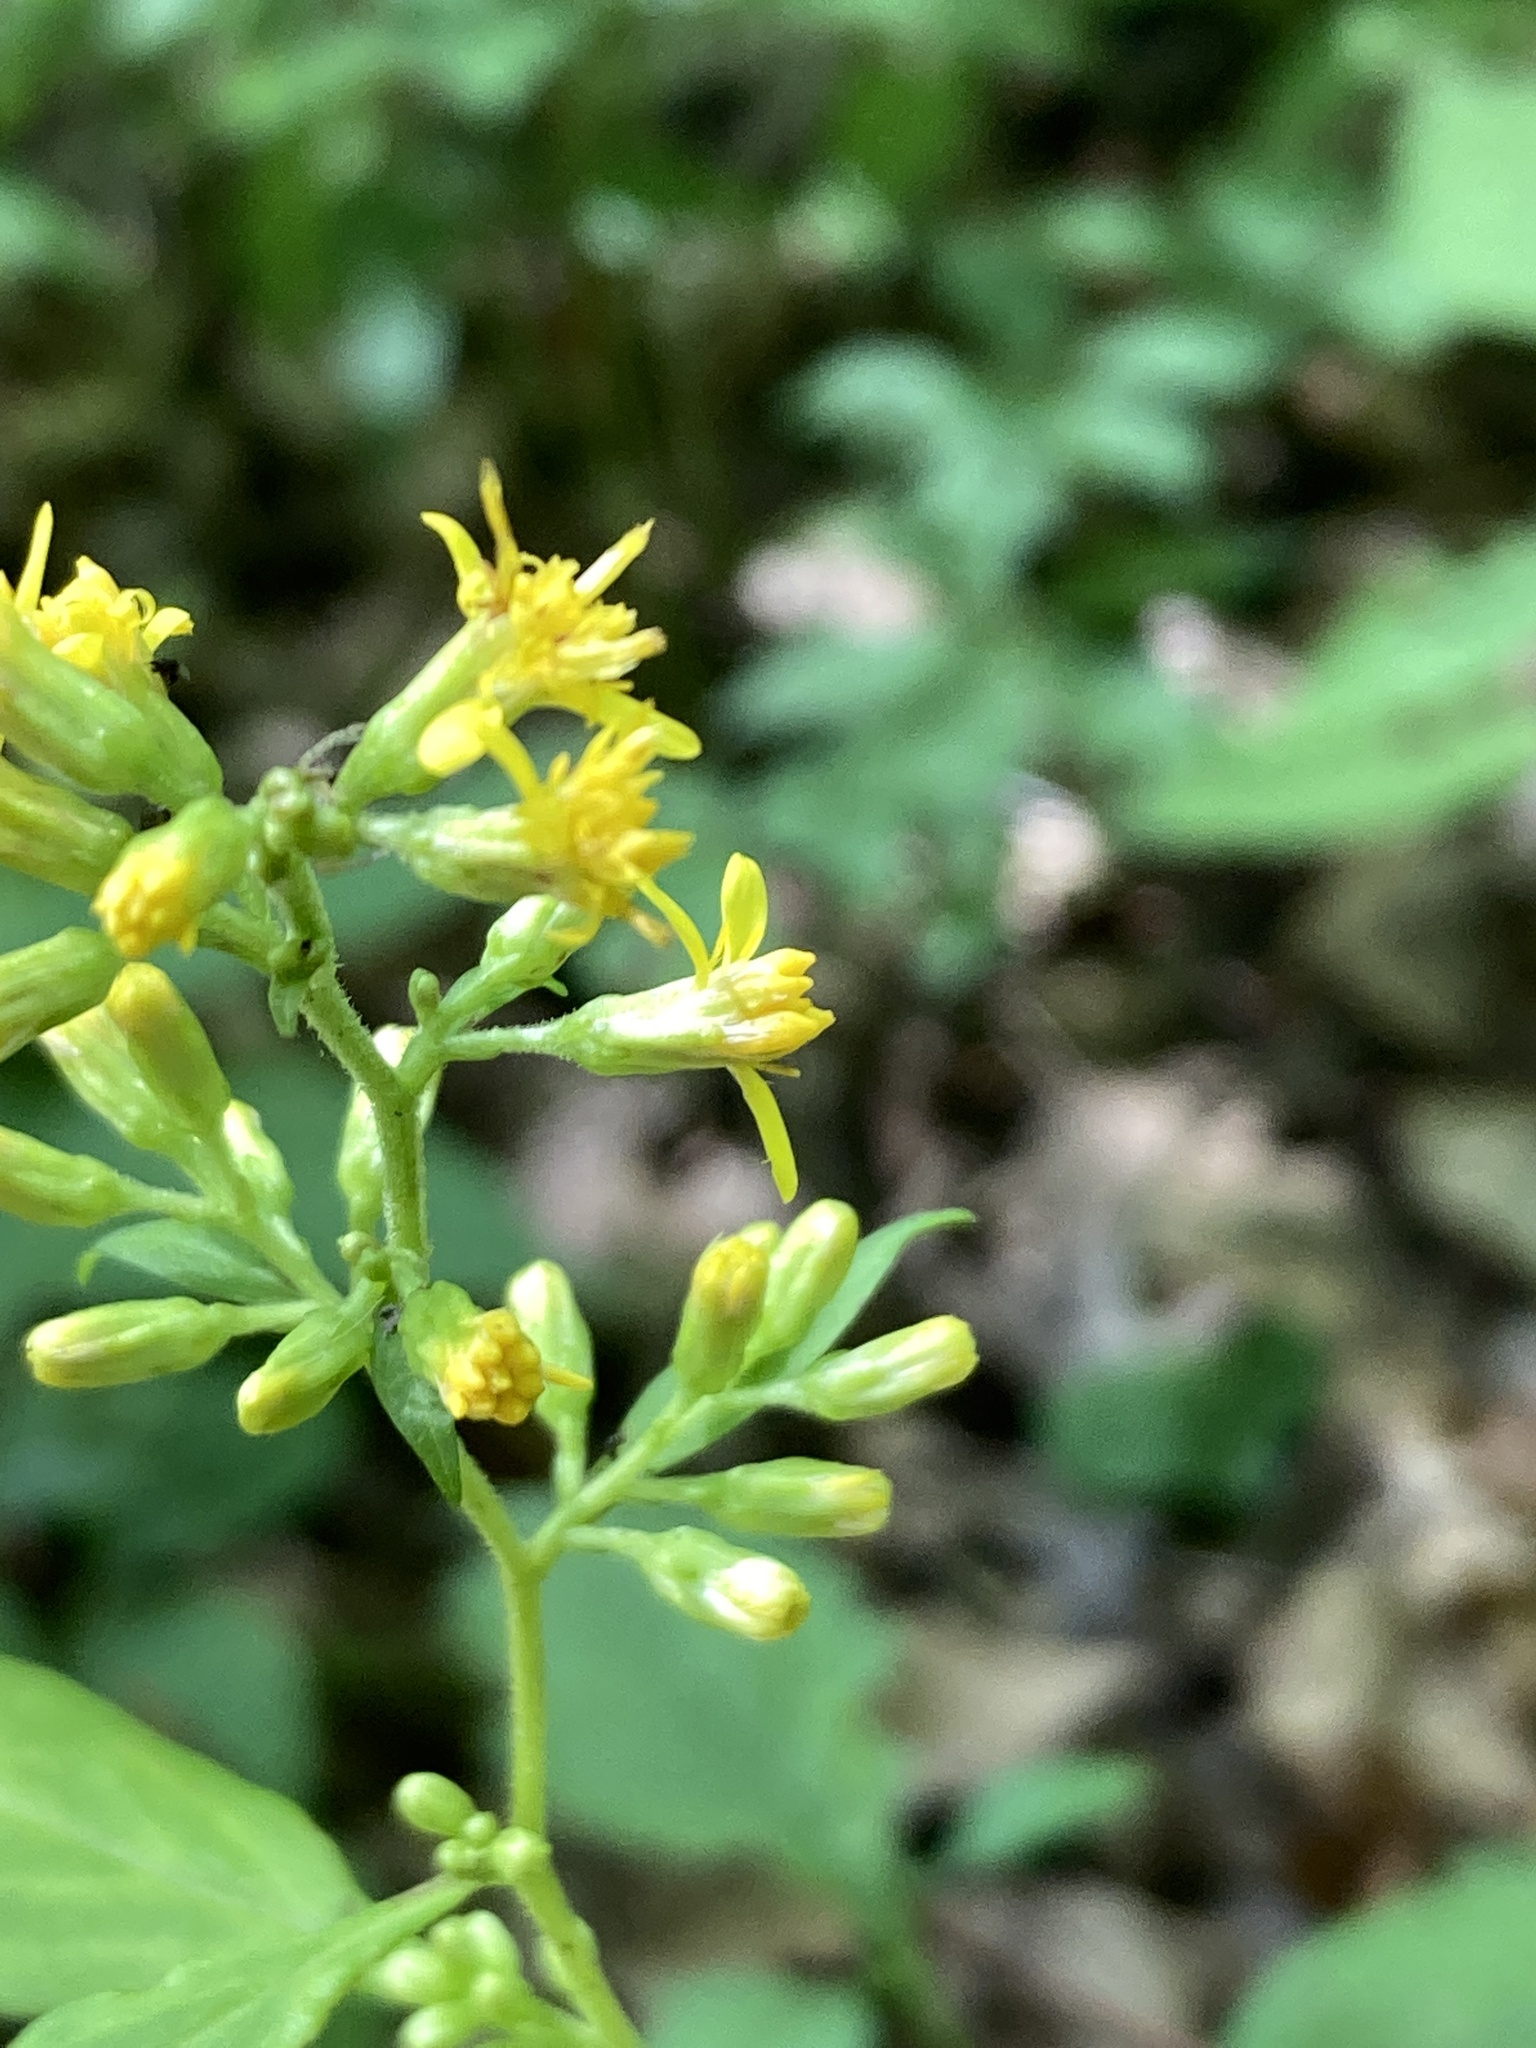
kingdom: Plantae
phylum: Tracheophyta
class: Magnoliopsida
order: Asterales
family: Asteraceae
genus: Solidago
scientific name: Solidago flexicaulis
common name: Zig-zag goldenrod
